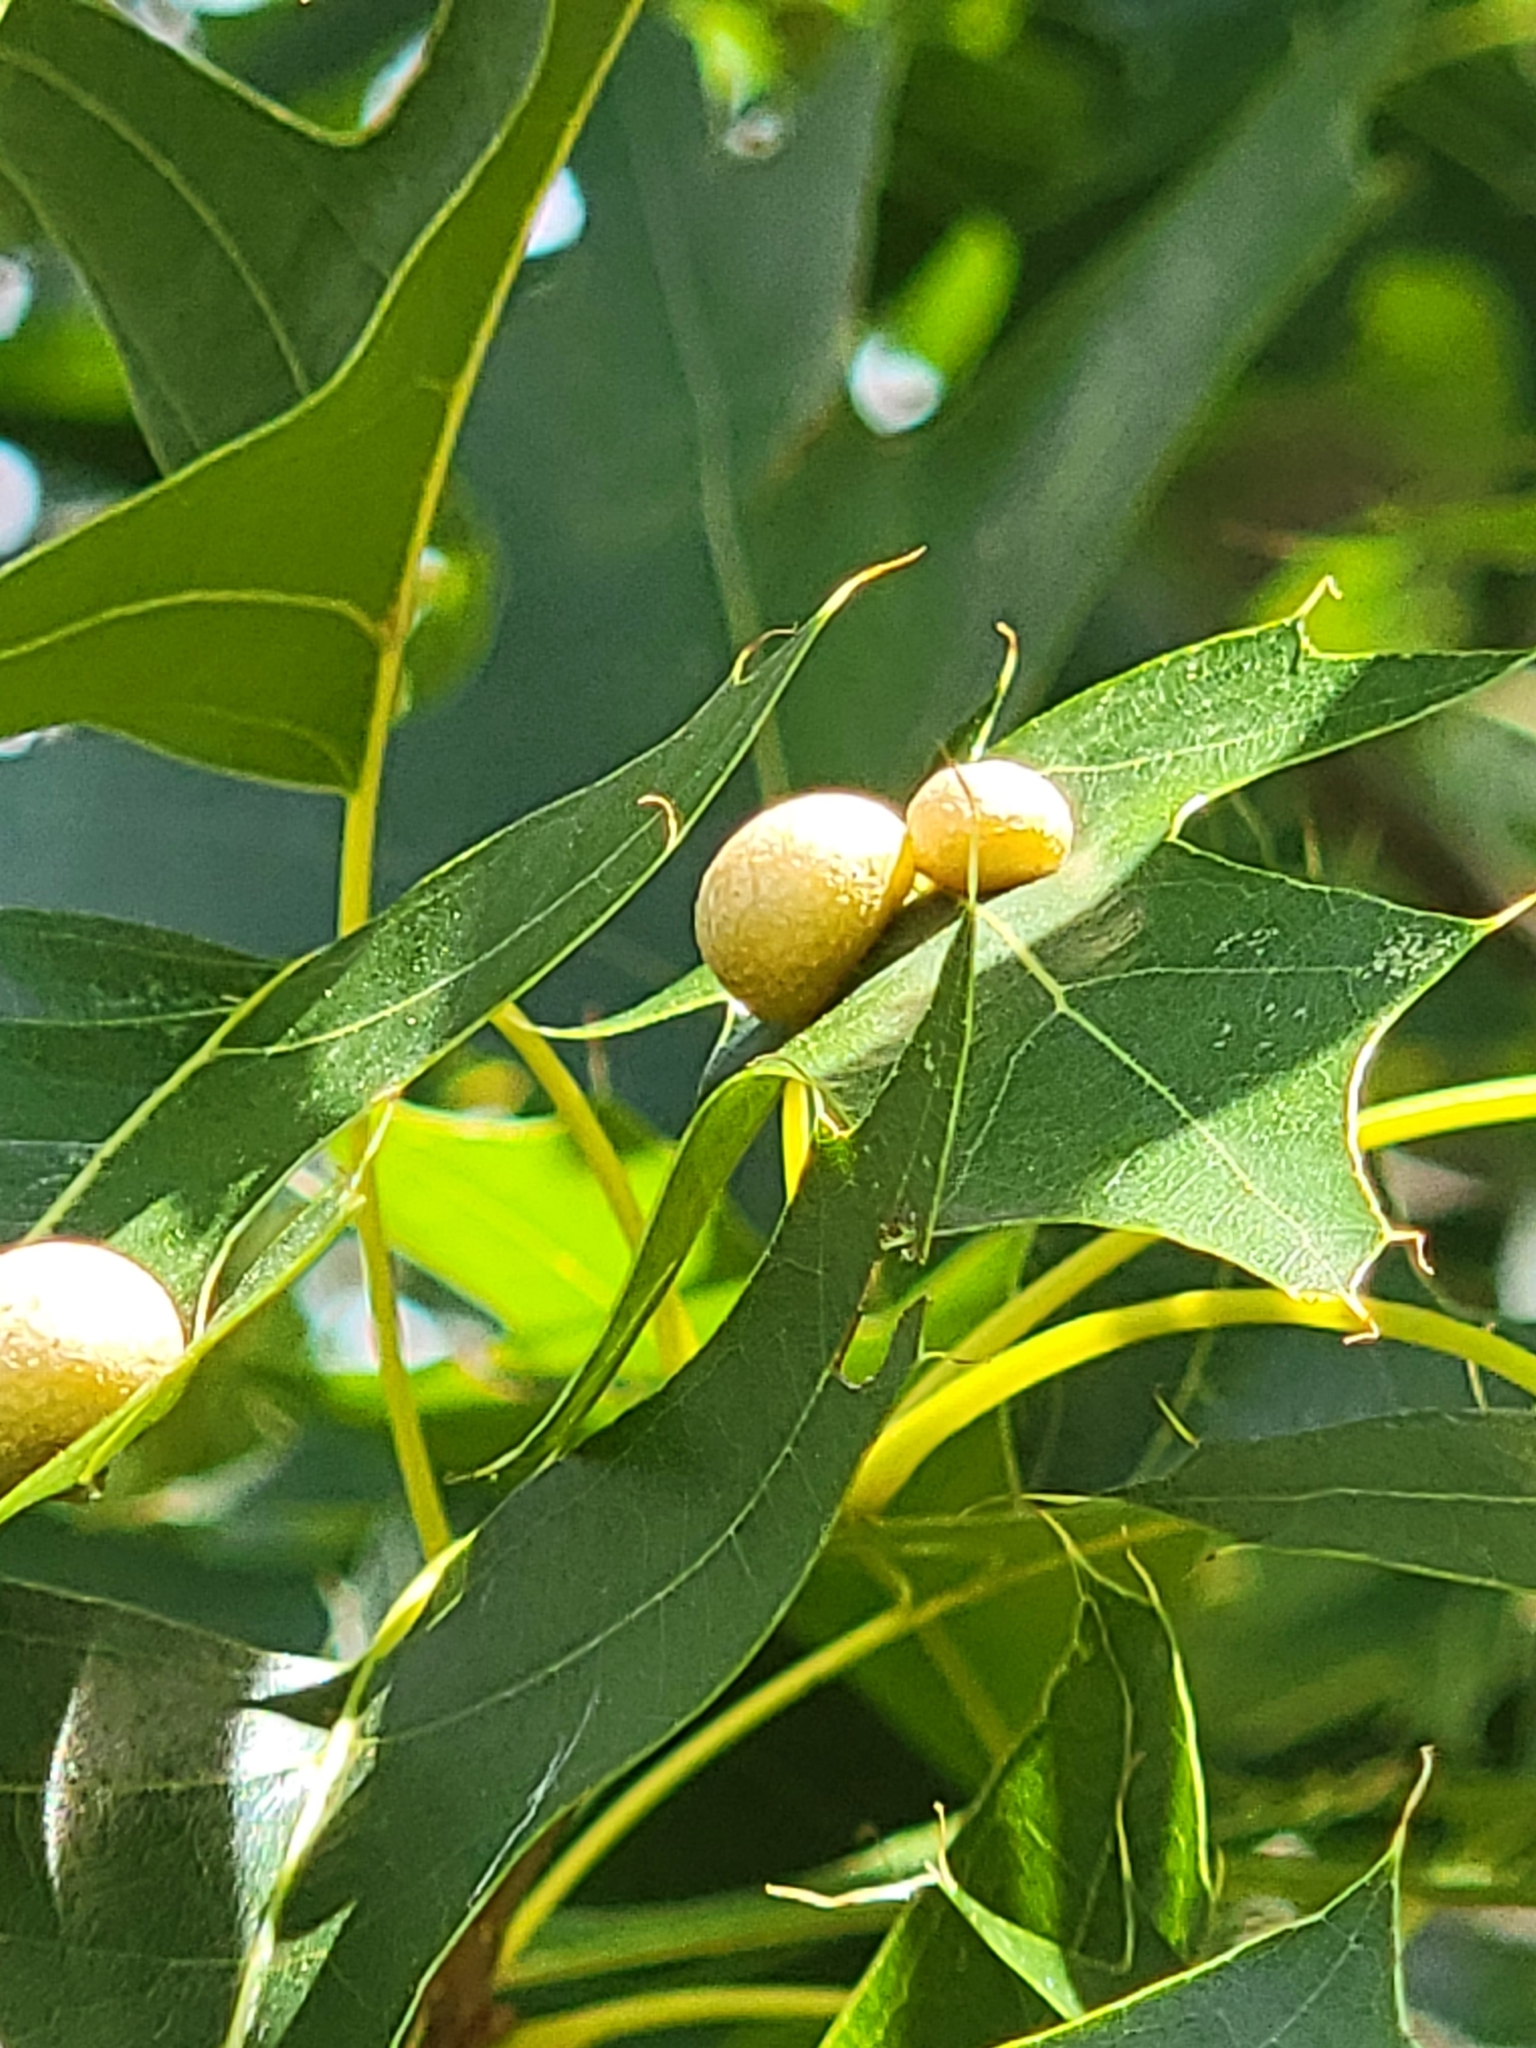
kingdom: Animalia
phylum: Arthropoda
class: Insecta
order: Diptera
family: Cecidomyiidae
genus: Polystepha
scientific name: Polystepha pilulae
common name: Oak leaf gall midge
